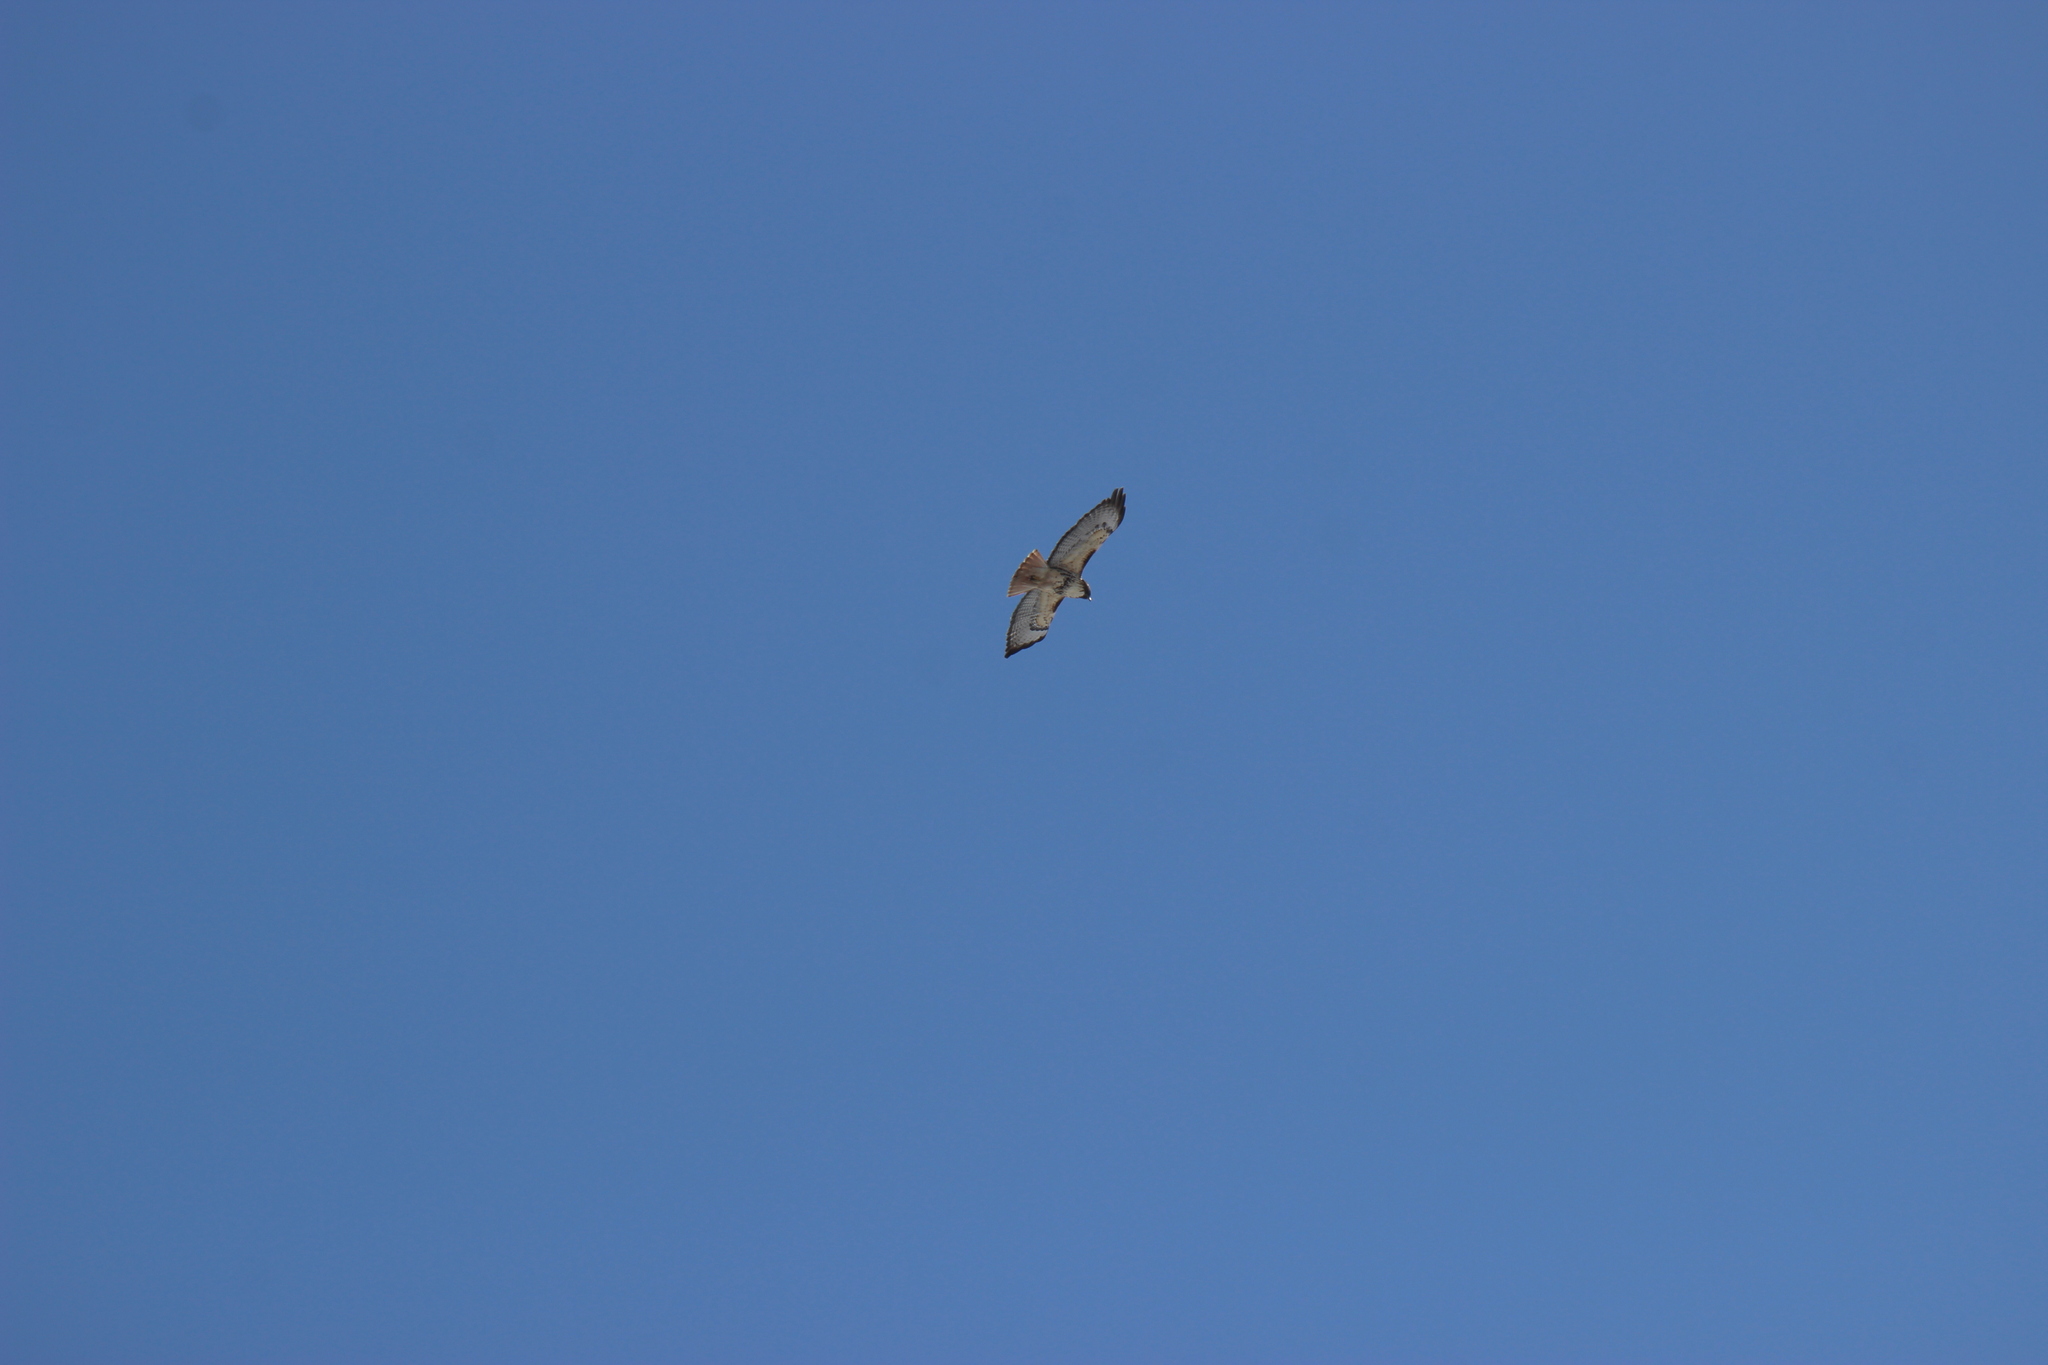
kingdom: Animalia
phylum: Chordata
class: Aves
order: Accipitriformes
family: Accipitridae
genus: Buteo
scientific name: Buteo jamaicensis
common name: Red-tailed hawk
